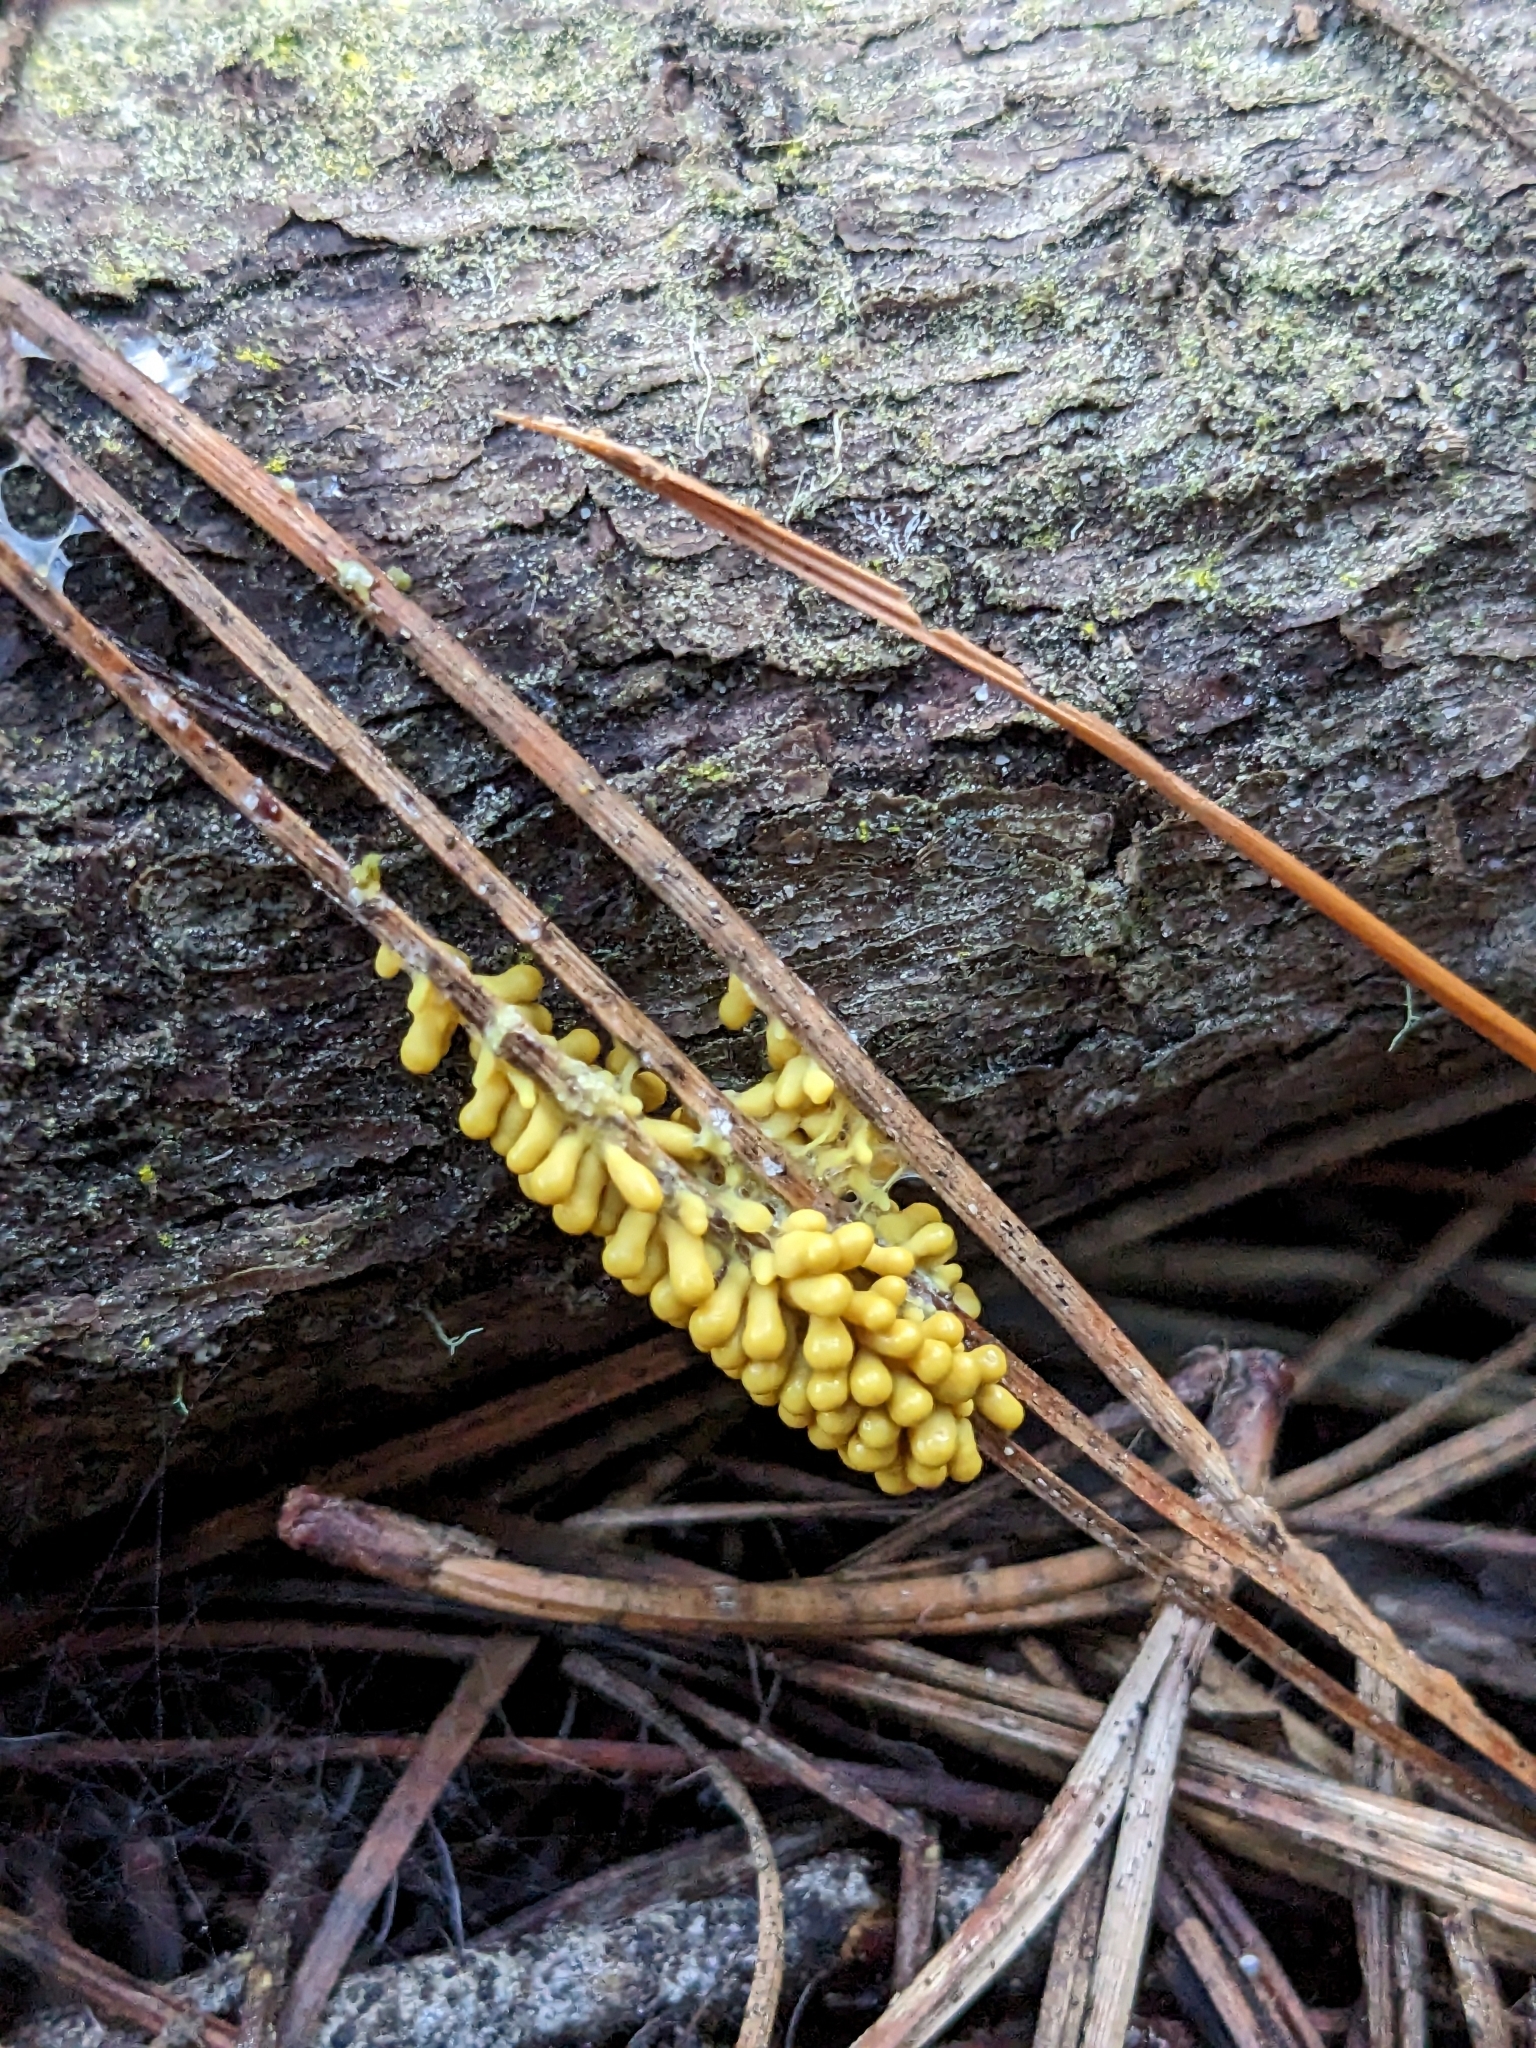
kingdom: Protozoa
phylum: Mycetozoa
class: Myxomycetes
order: Physarales
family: Physaraceae
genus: Leocarpus
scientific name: Leocarpus fragilis
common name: Insect-egg slime
